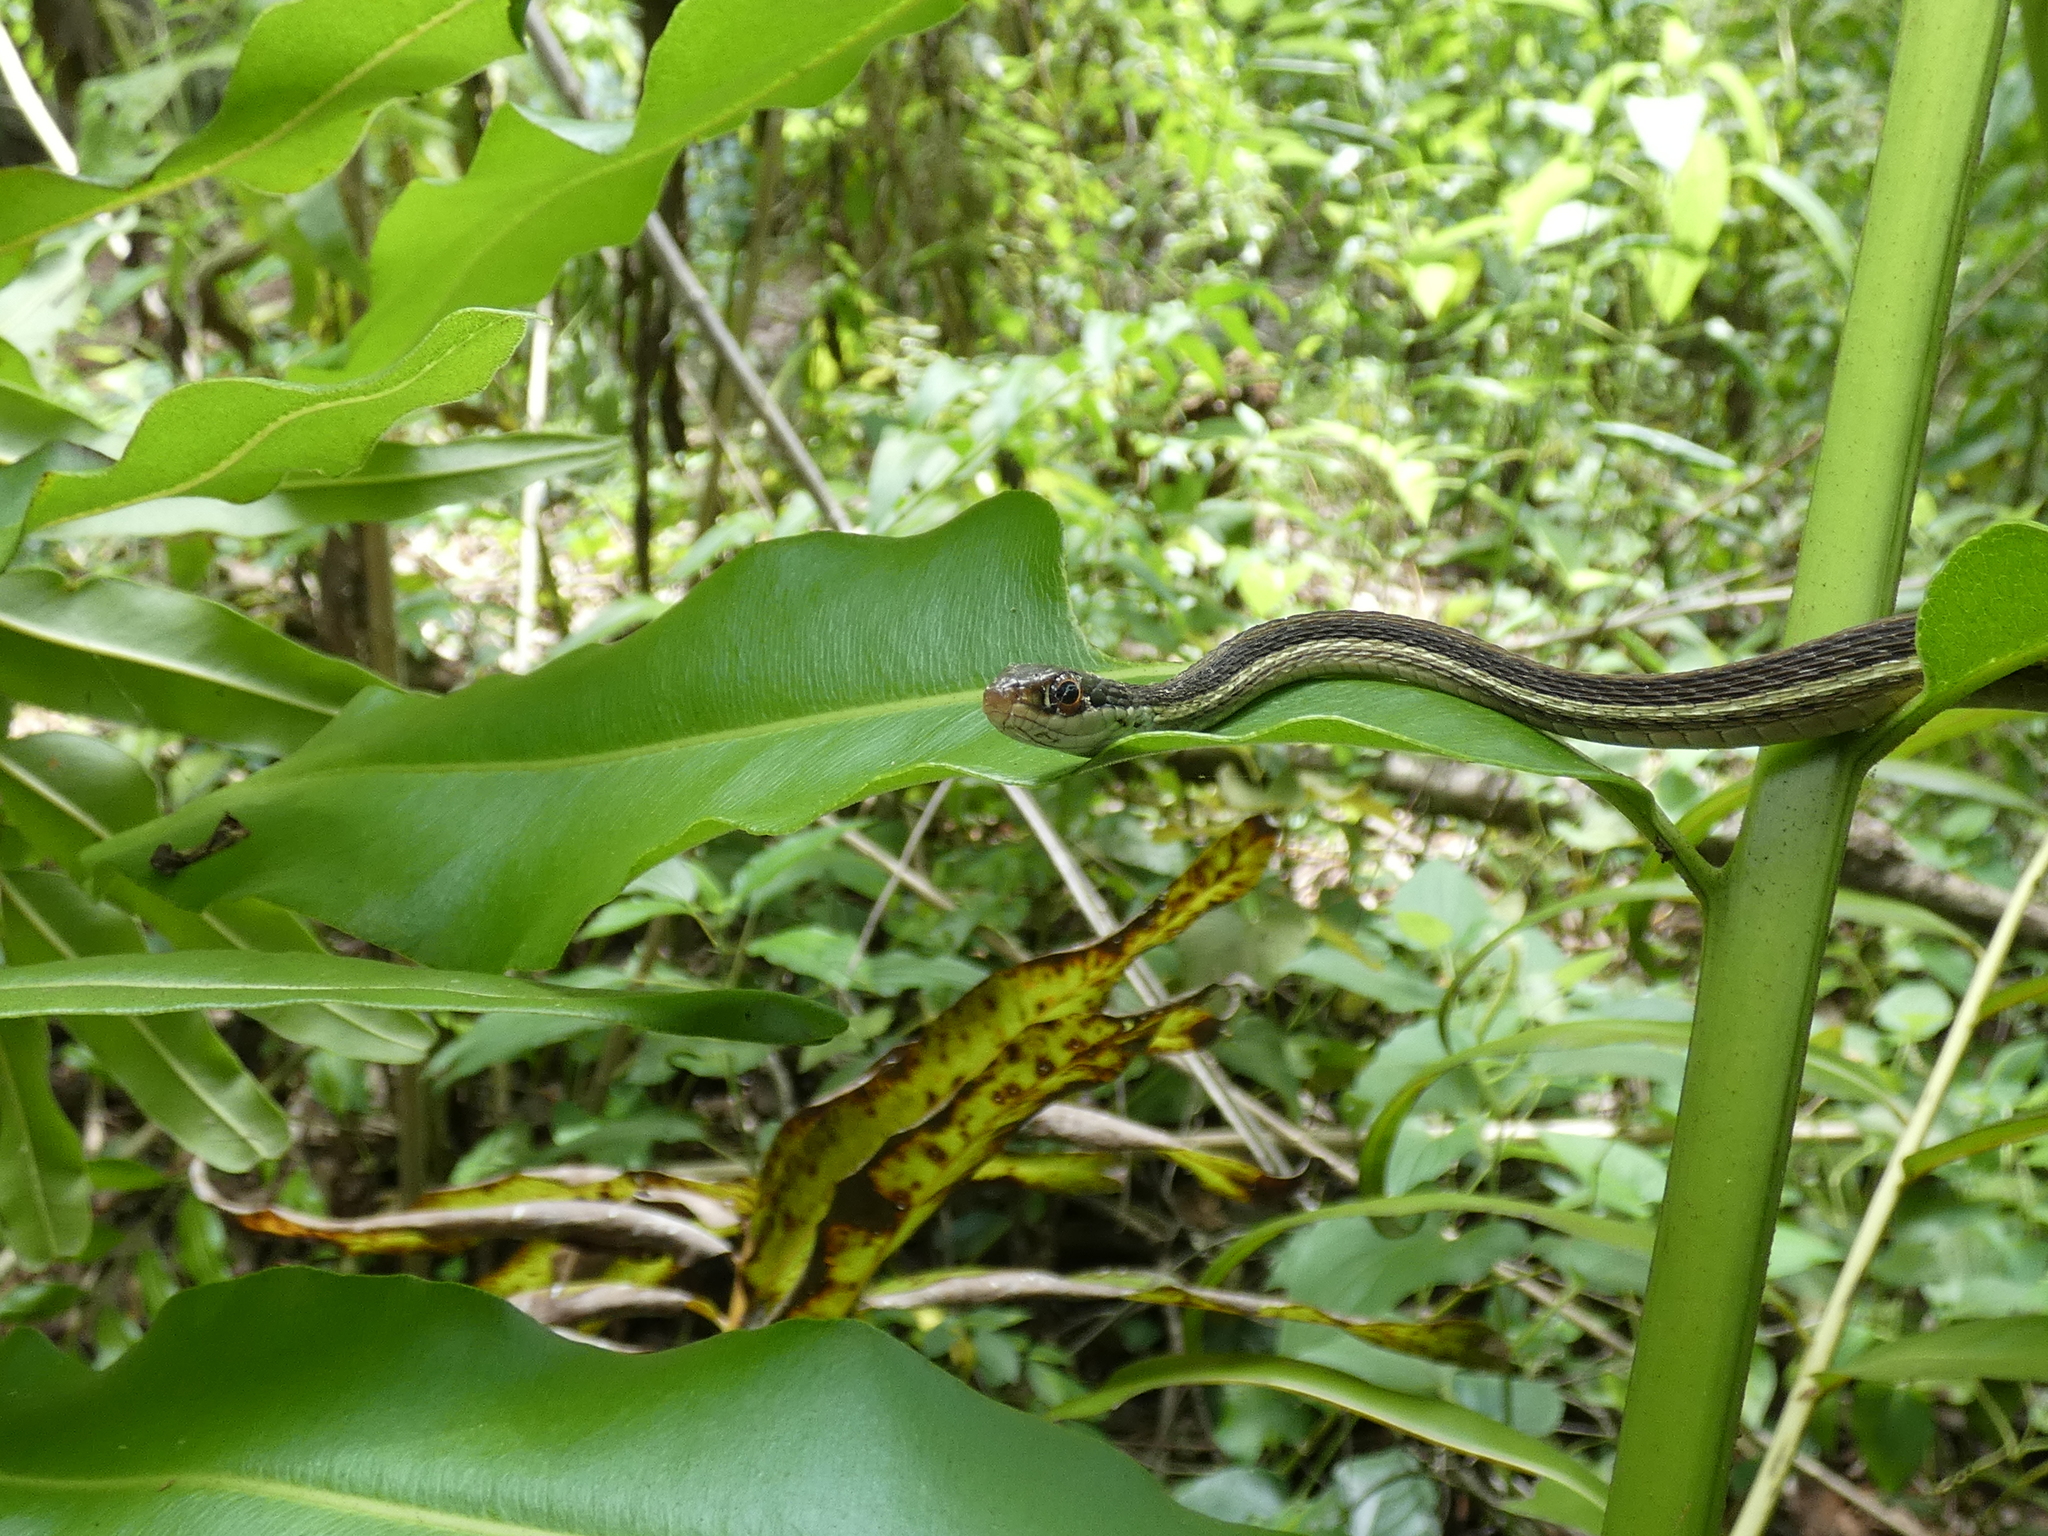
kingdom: Animalia
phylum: Chordata
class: Squamata
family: Colubridae
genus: Thamnophis
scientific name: Thamnophis saurita
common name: Eastern ribbonsnake
